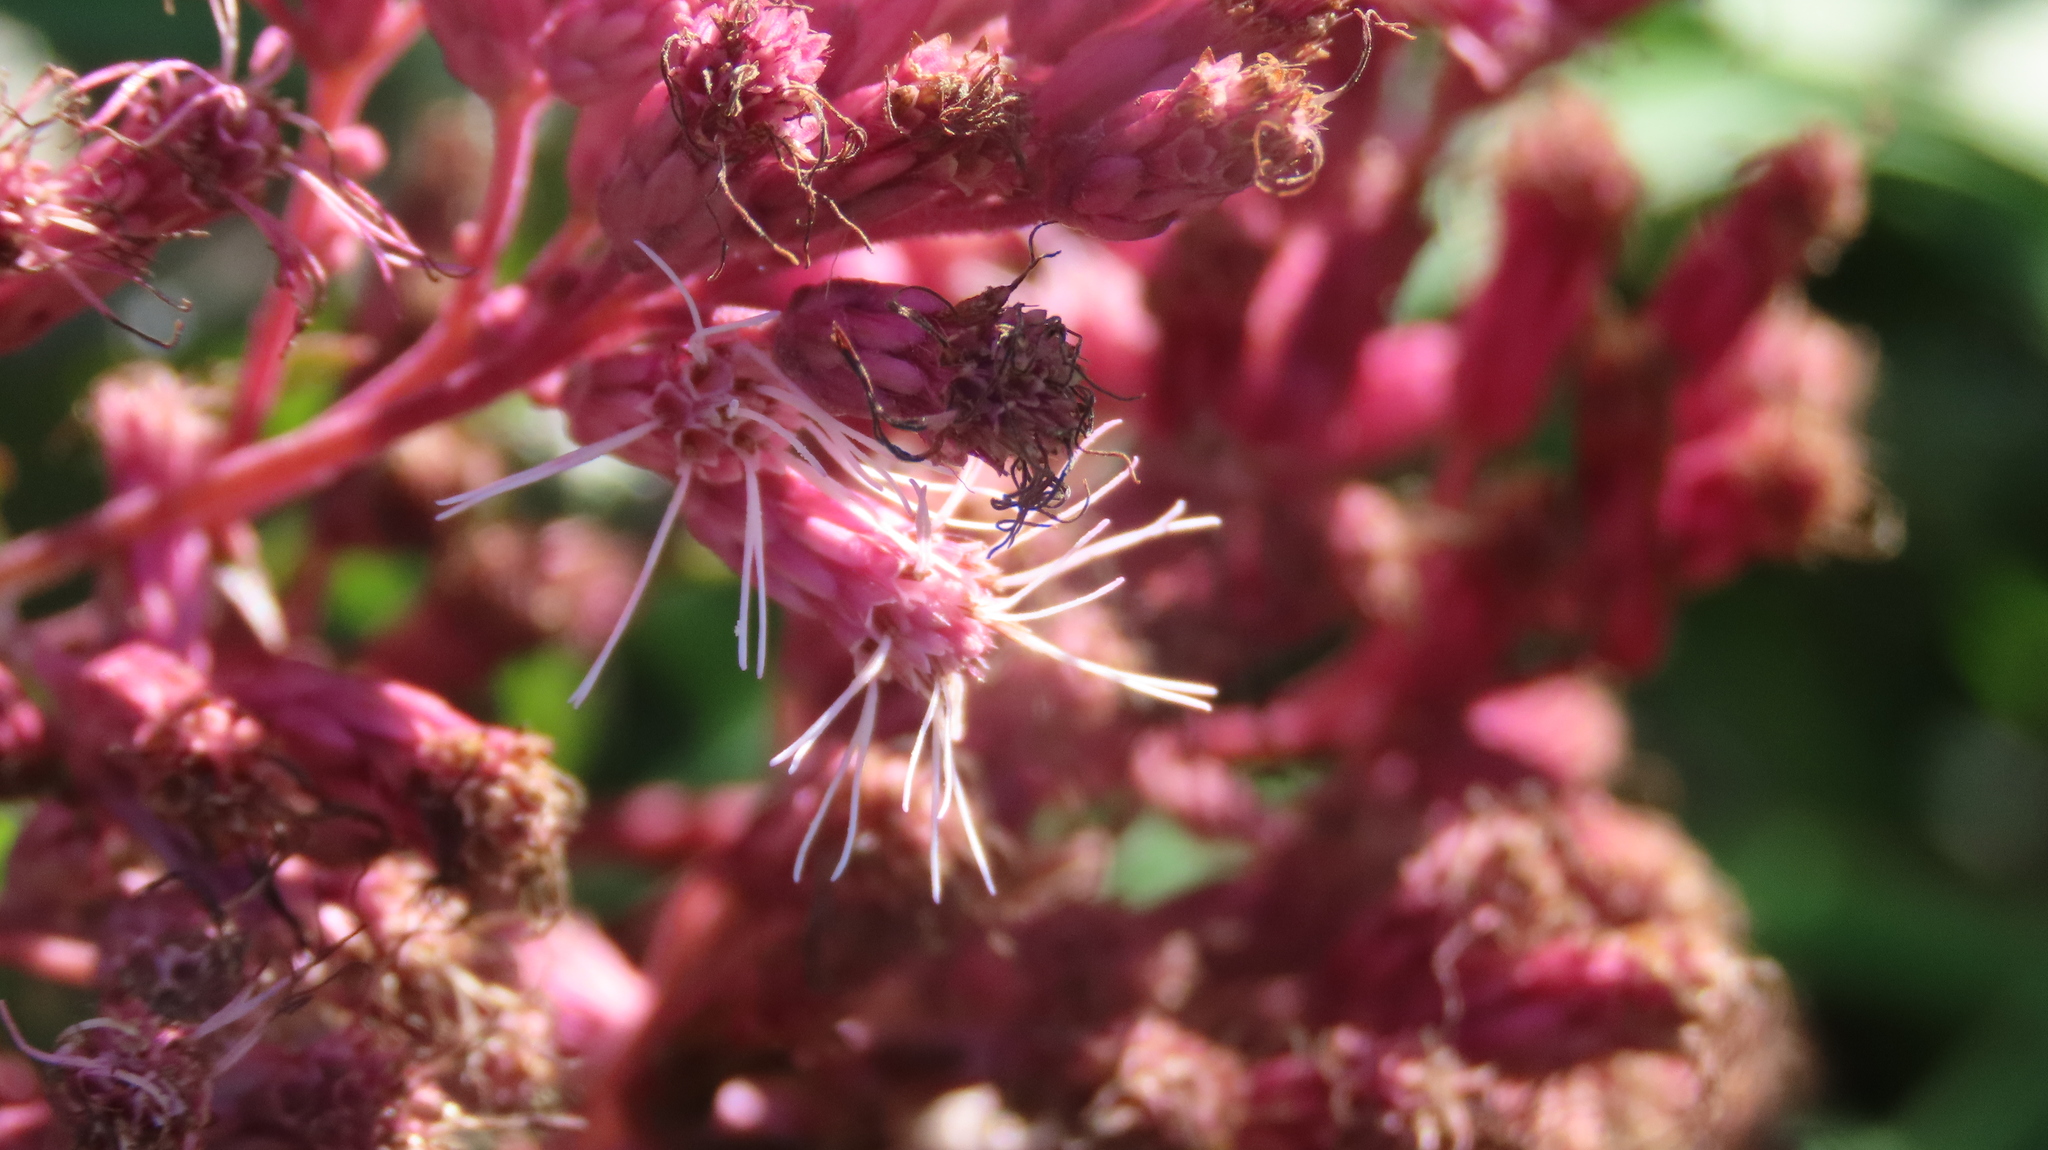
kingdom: Plantae
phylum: Tracheophyta
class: Magnoliopsida
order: Asterales
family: Asteraceae
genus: Eutrochium
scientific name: Eutrochium maculatum
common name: Spotted joe pye weed
